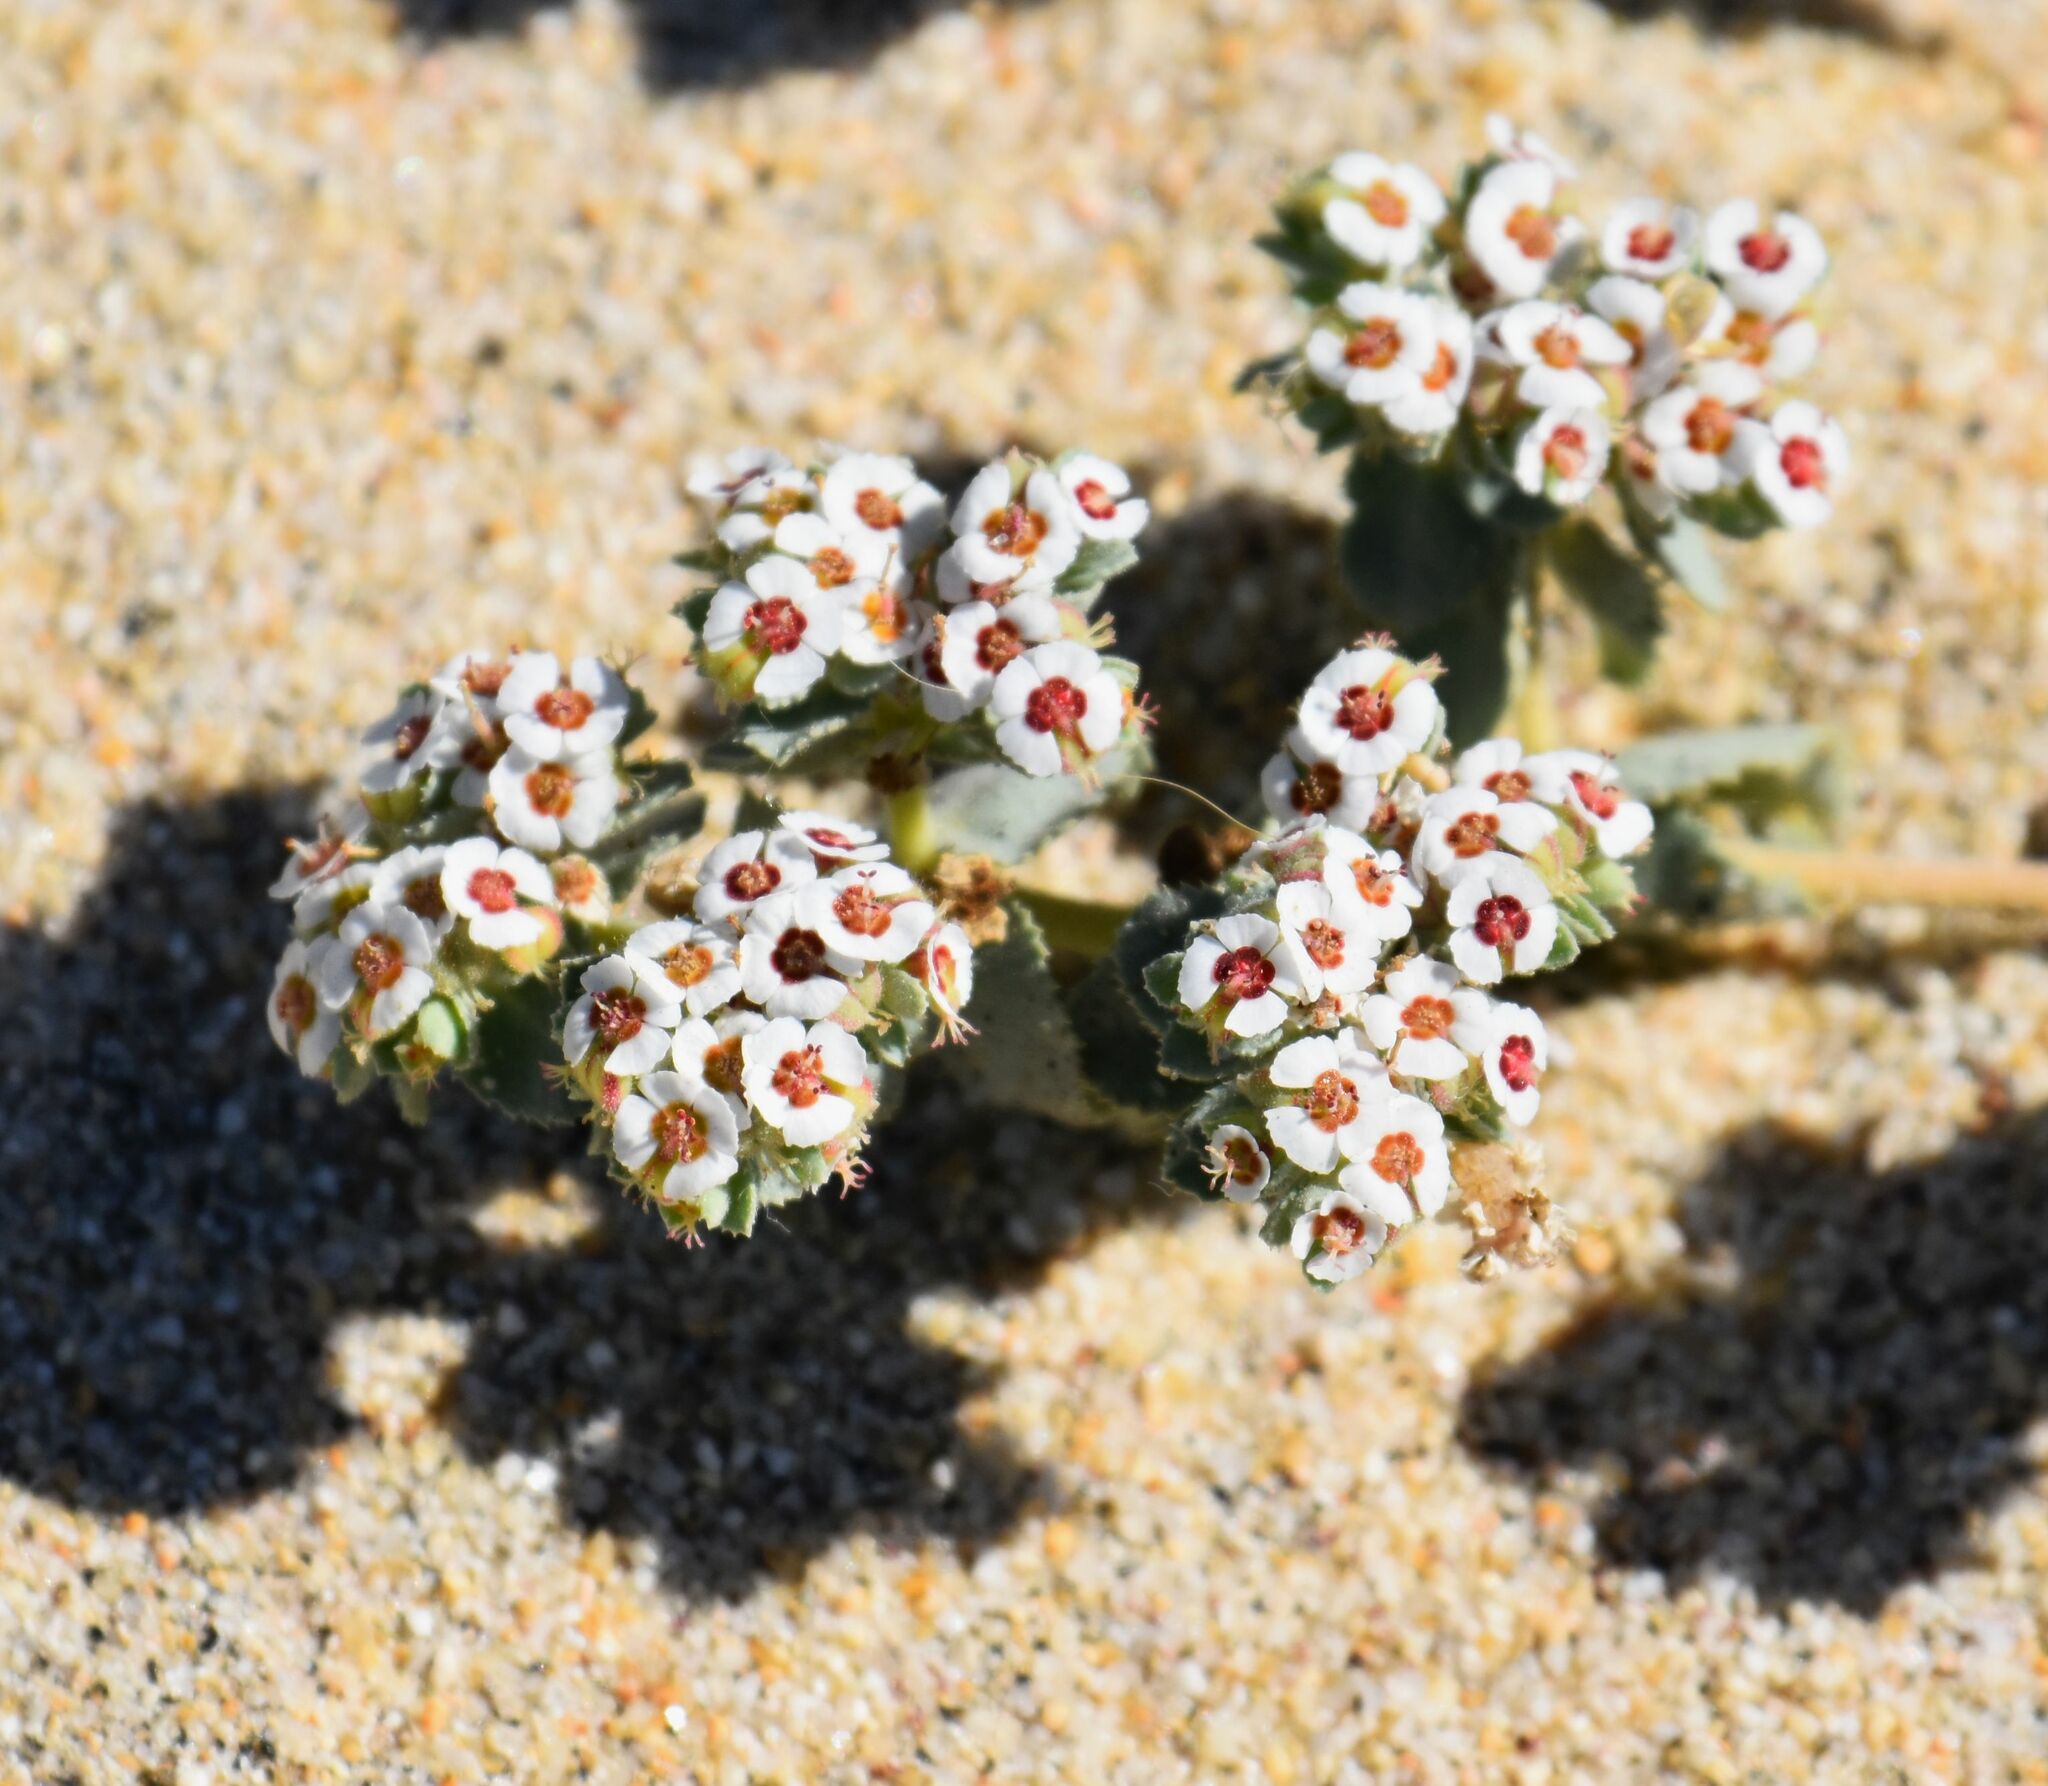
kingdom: Plantae
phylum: Tracheophyta
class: Magnoliopsida
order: Malpighiales
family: Euphorbiaceae
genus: Euphorbia
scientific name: Euphorbia leucophylla
